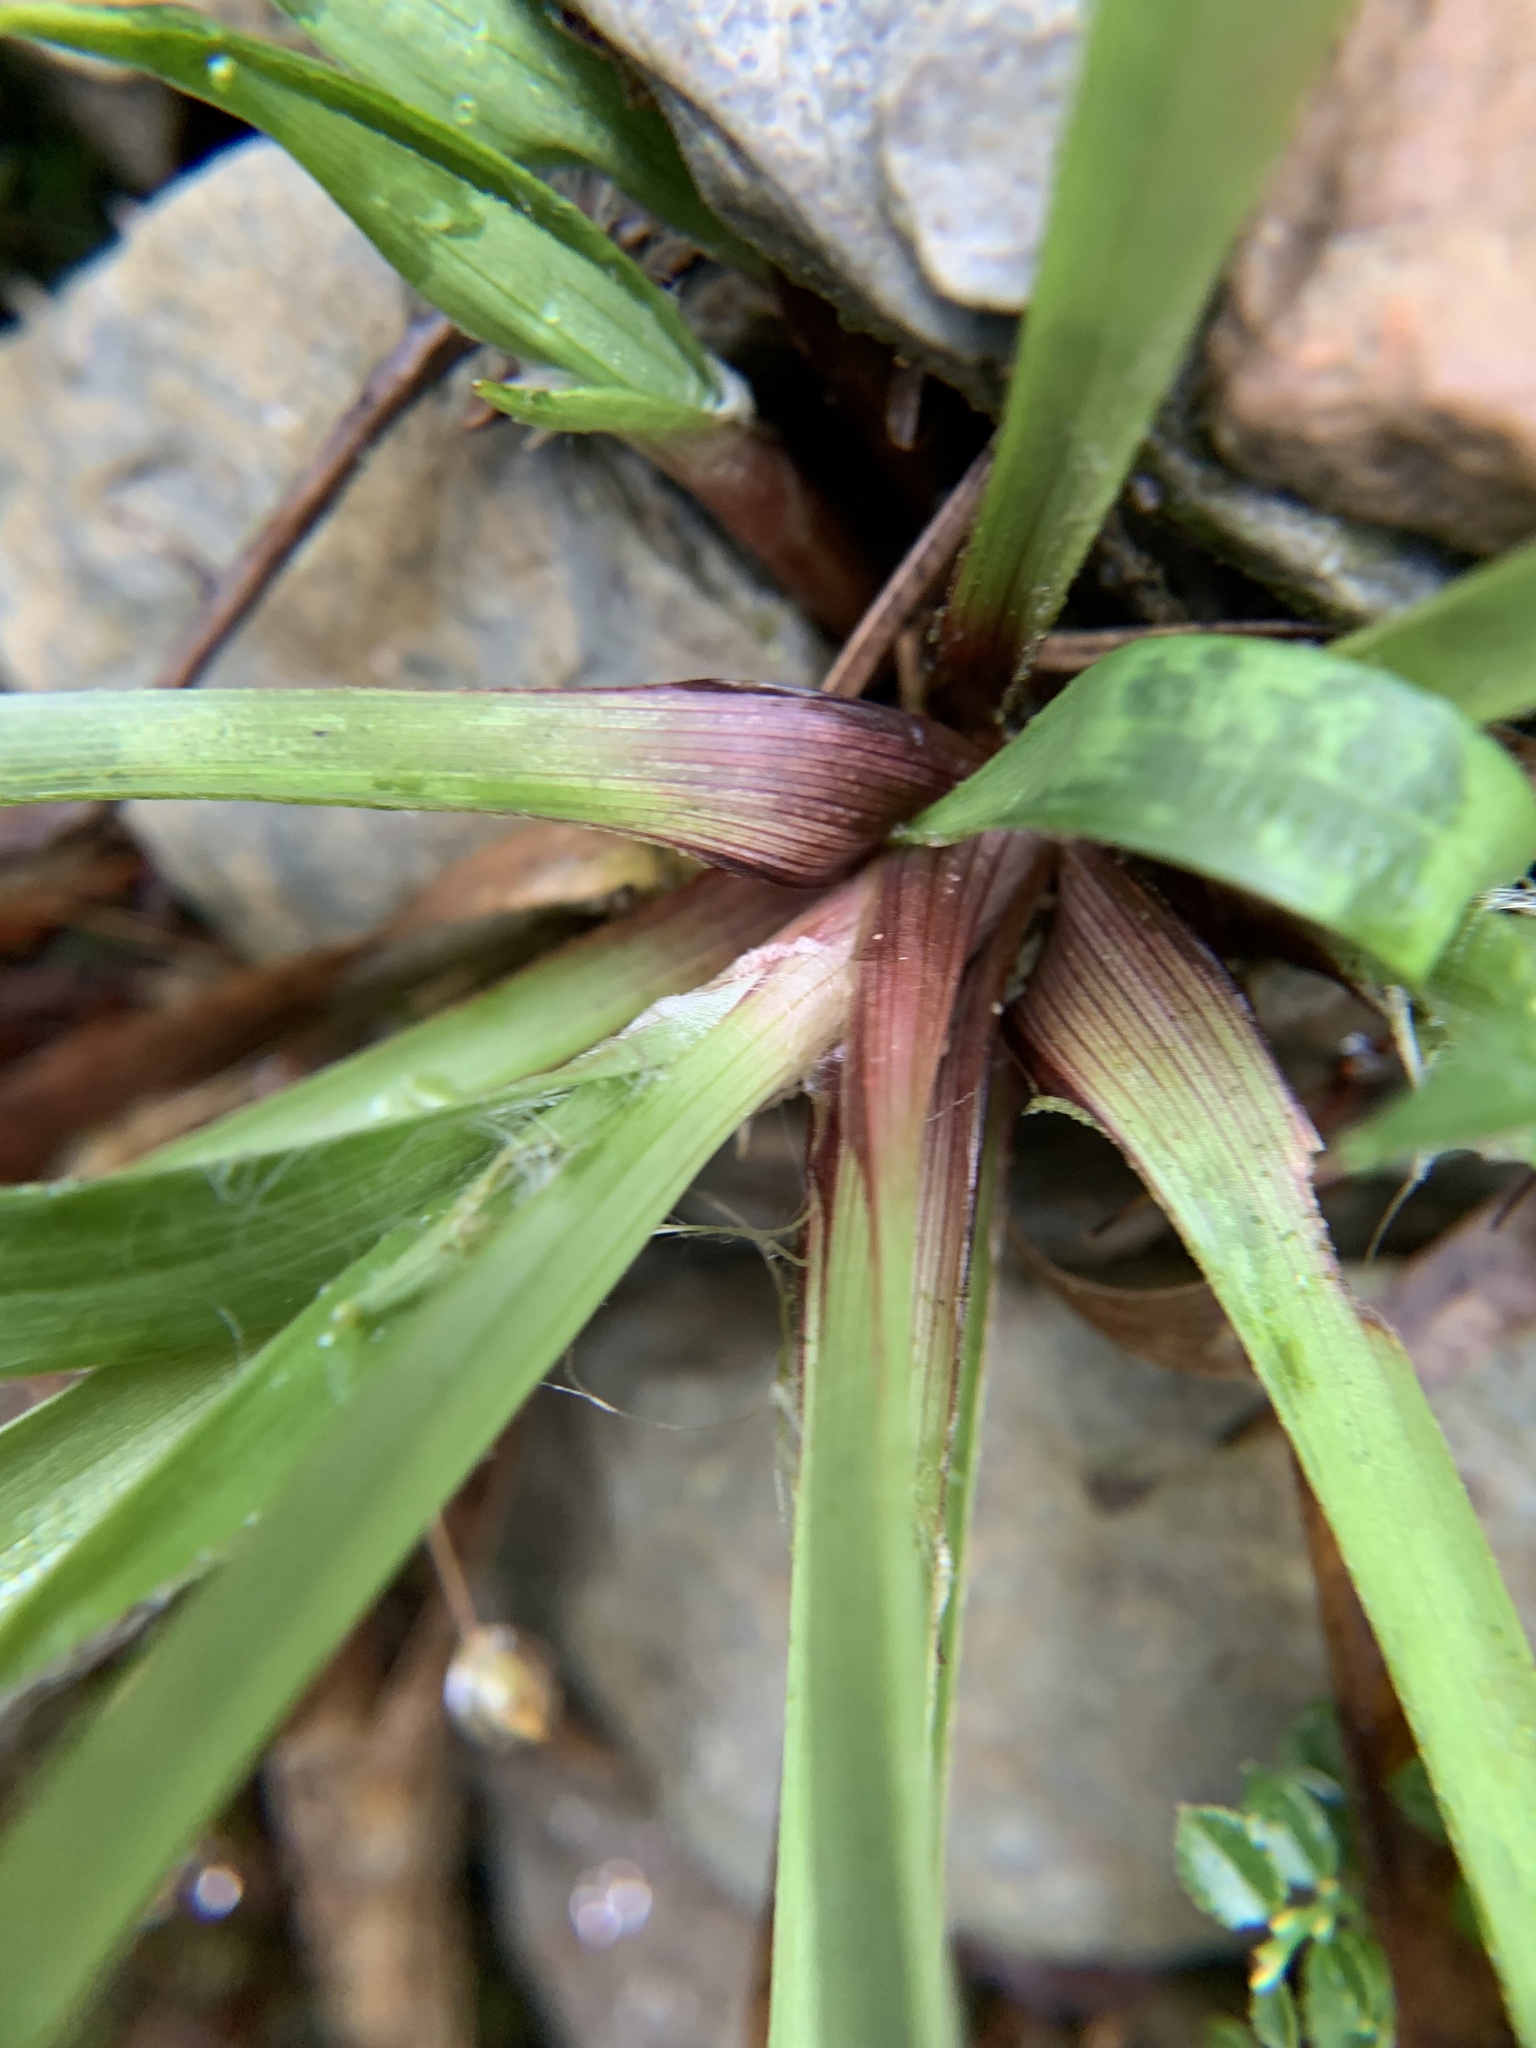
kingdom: Plantae
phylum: Tracheophyta
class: Liliopsida
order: Poales
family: Juncaceae
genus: Luzula
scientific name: Luzula pilosa
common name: Hairy wood-rush
